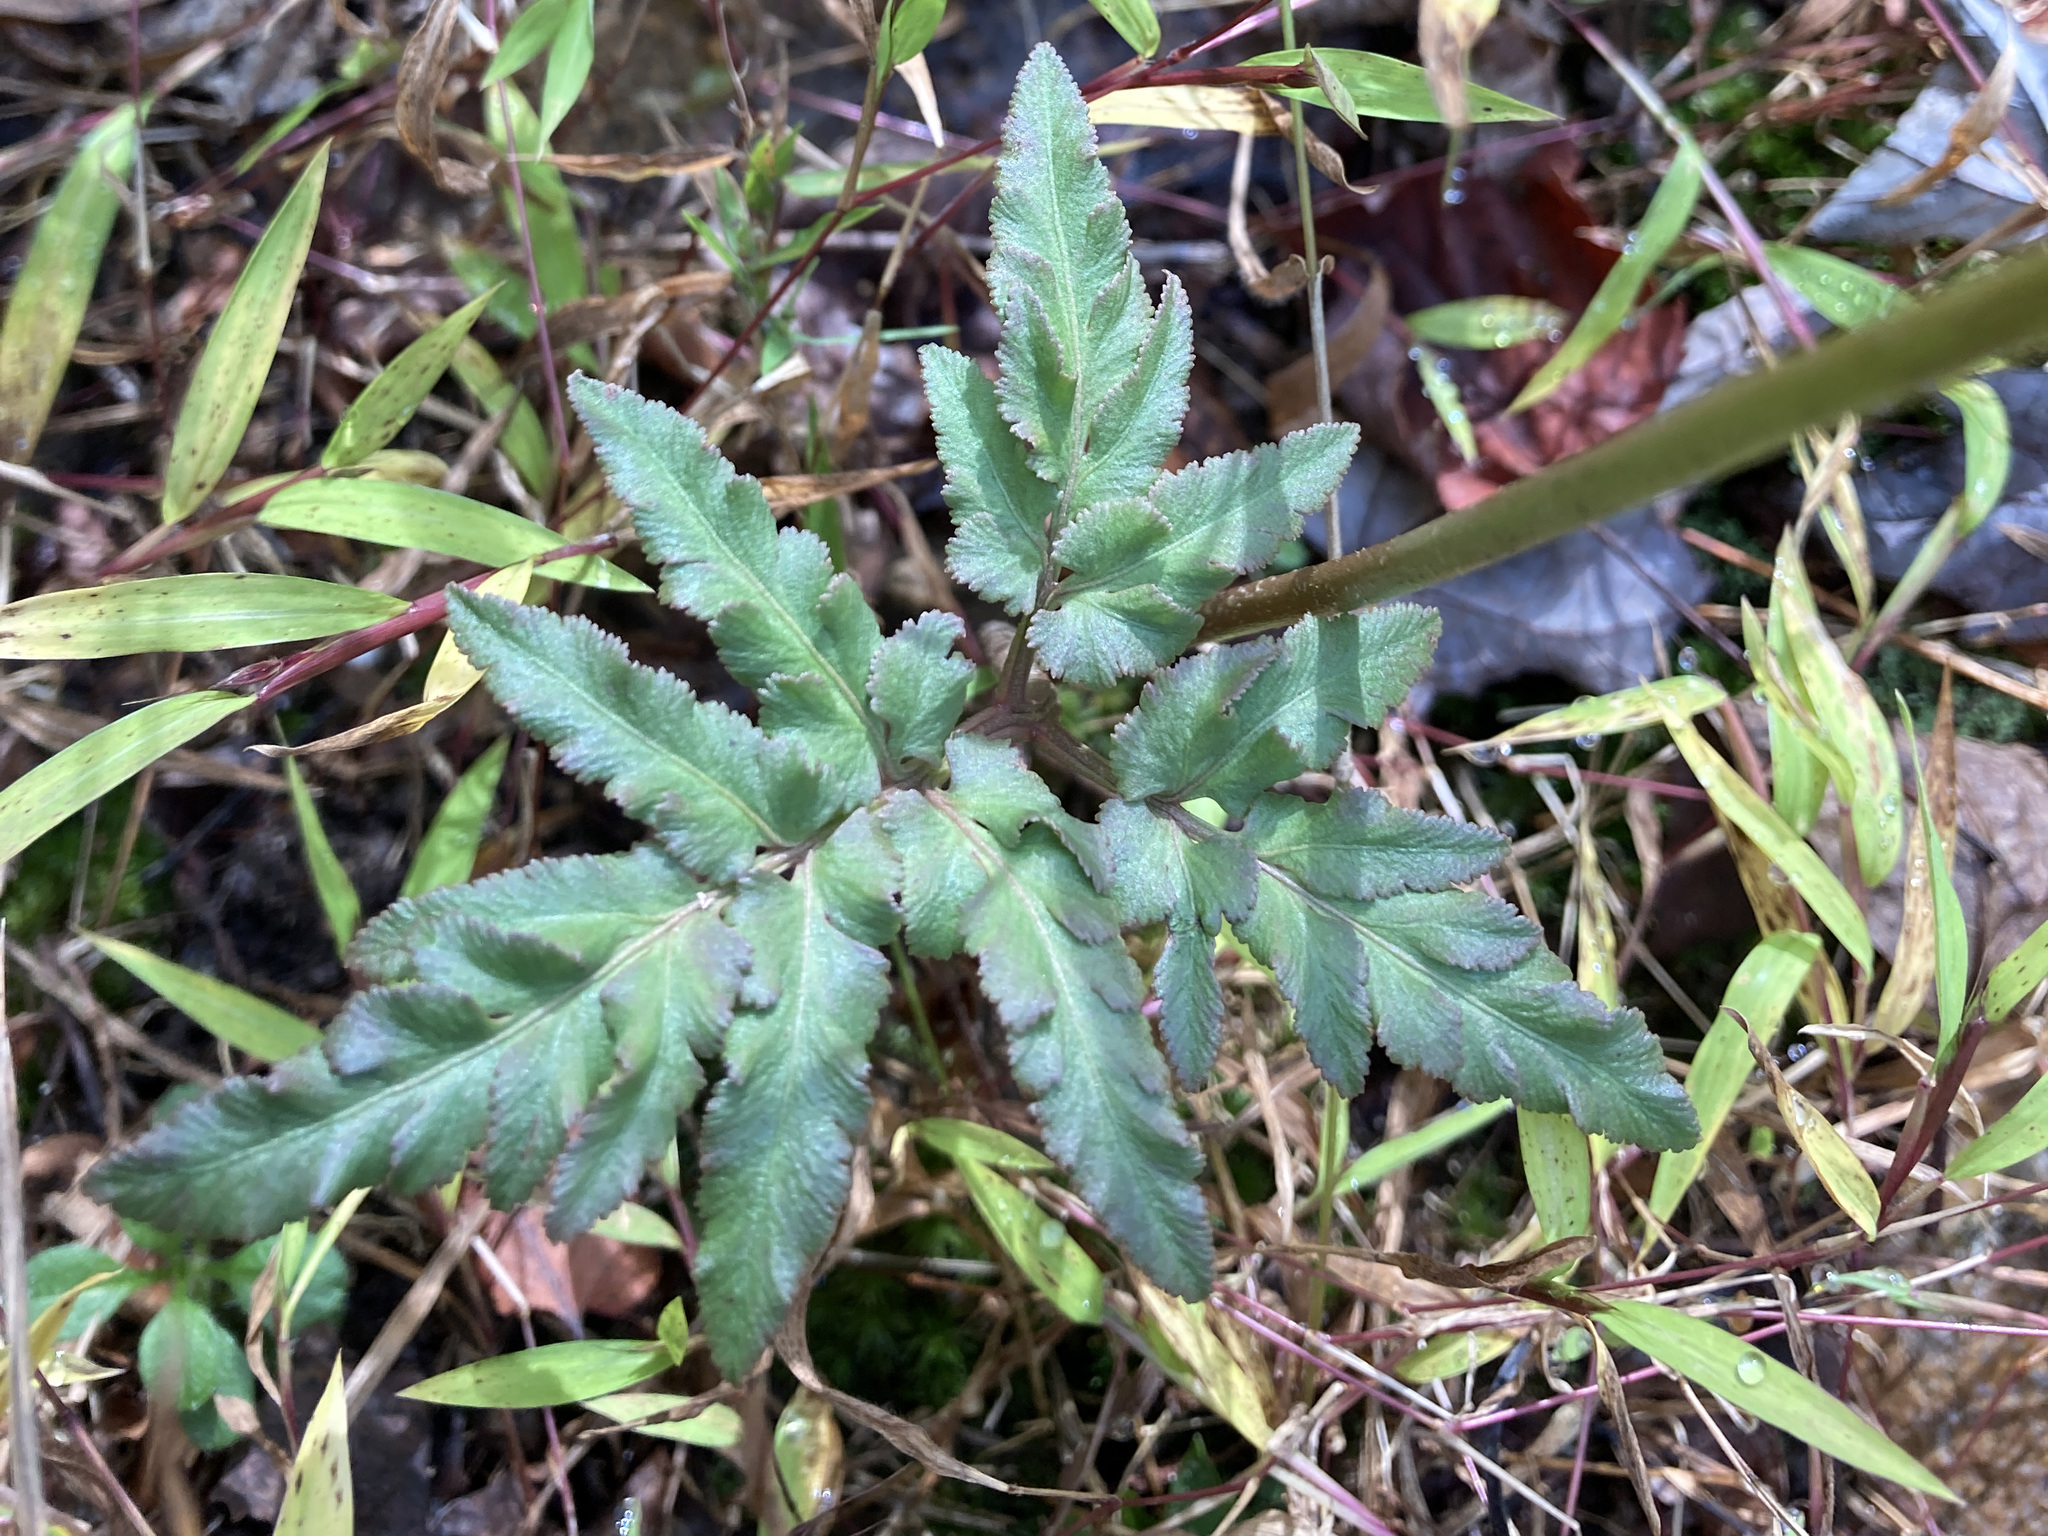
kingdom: Plantae
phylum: Tracheophyta
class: Polypodiopsida
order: Ophioglossales
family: Ophioglossaceae
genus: Sceptridium
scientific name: Sceptridium dissectum
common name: Cut-leaved grapefern
